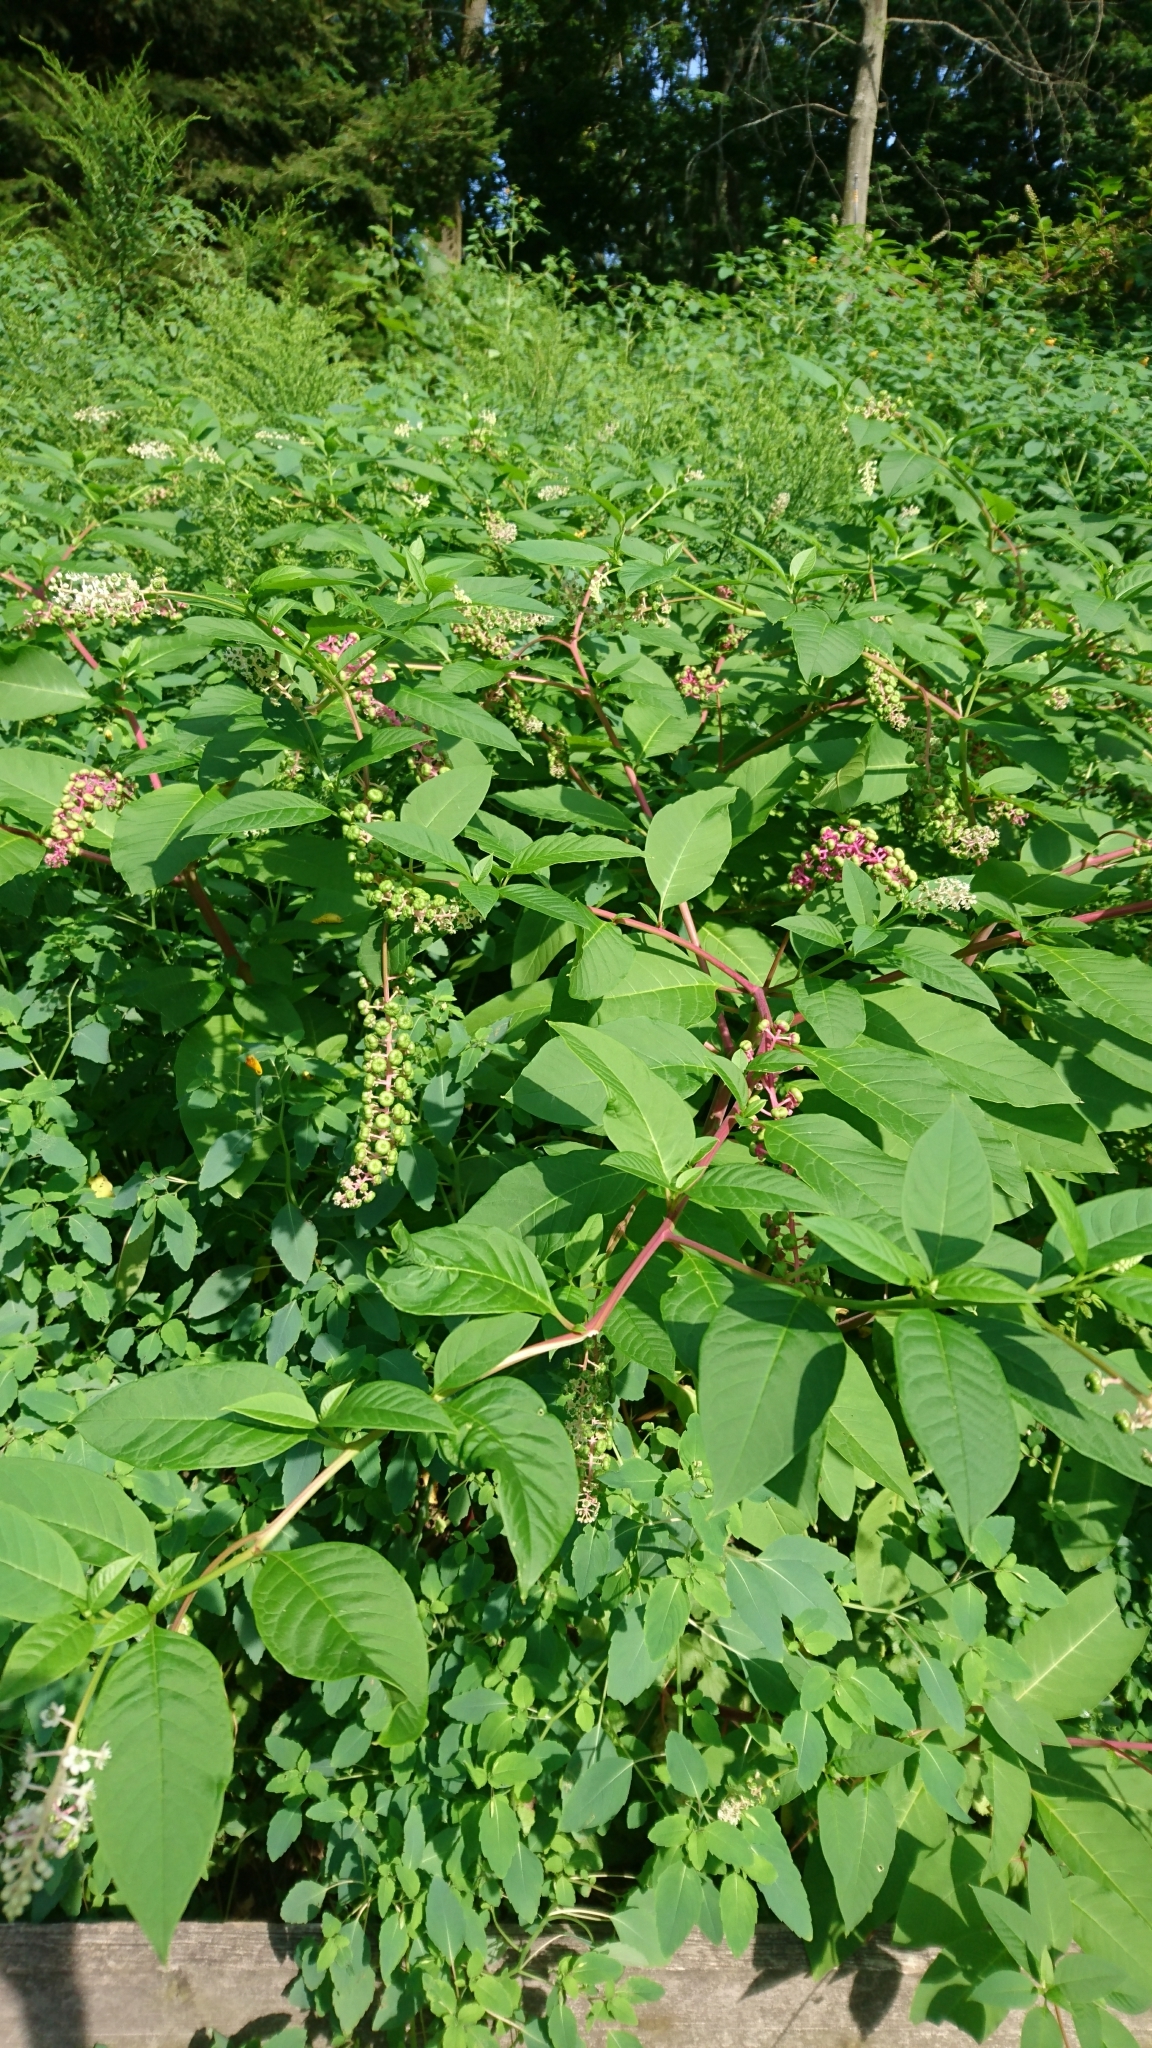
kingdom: Plantae
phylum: Tracheophyta
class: Magnoliopsida
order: Caryophyllales
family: Phytolaccaceae
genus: Phytolacca
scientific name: Phytolacca americana
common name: American pokeweed
